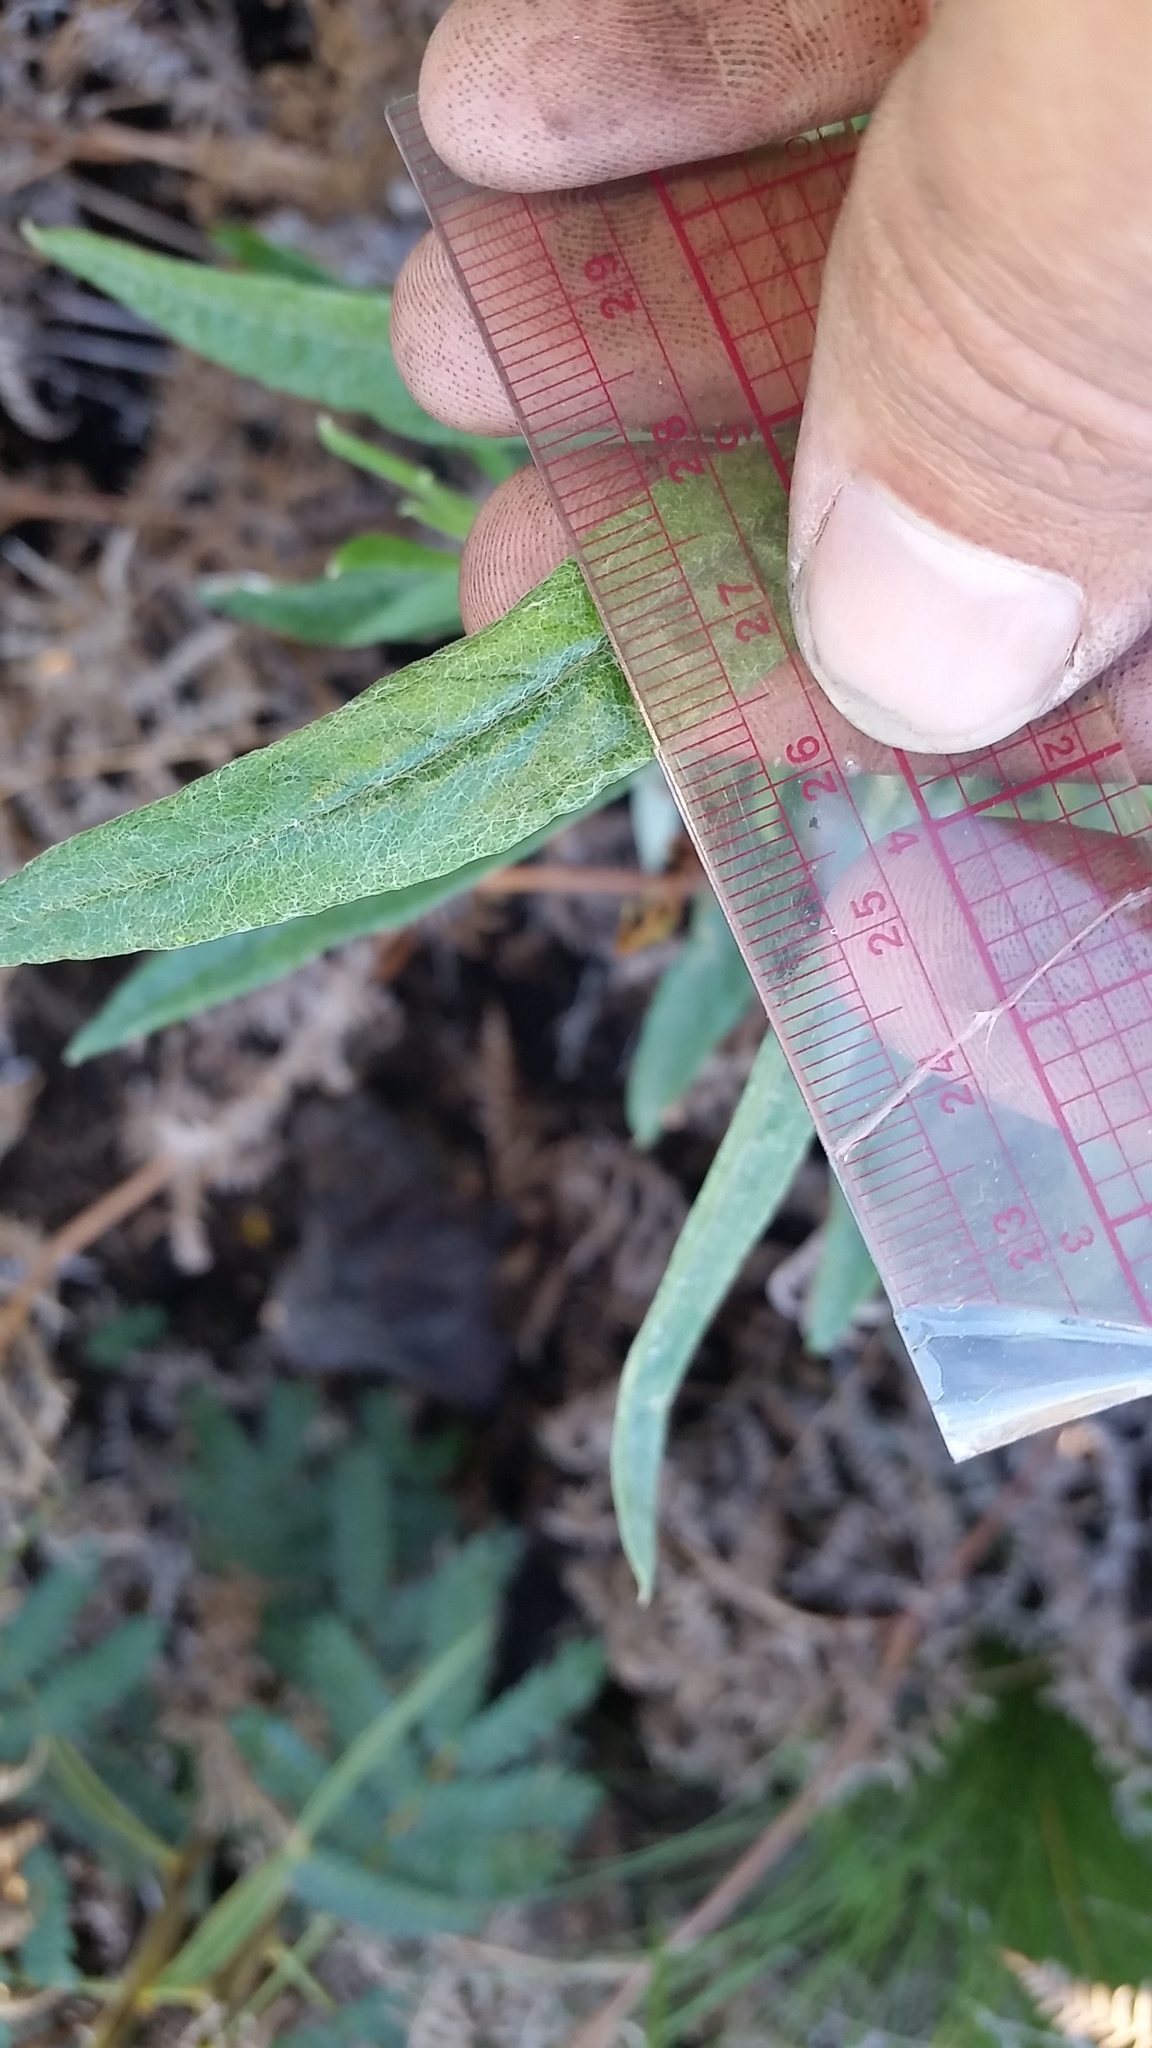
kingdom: Plantae
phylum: Tracheophyta
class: Magnoliopsida
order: Asterales
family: Asteraceae
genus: Pseudognaphalium
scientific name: Pseudognaphalium attenuatum
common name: Tapered cudweed
